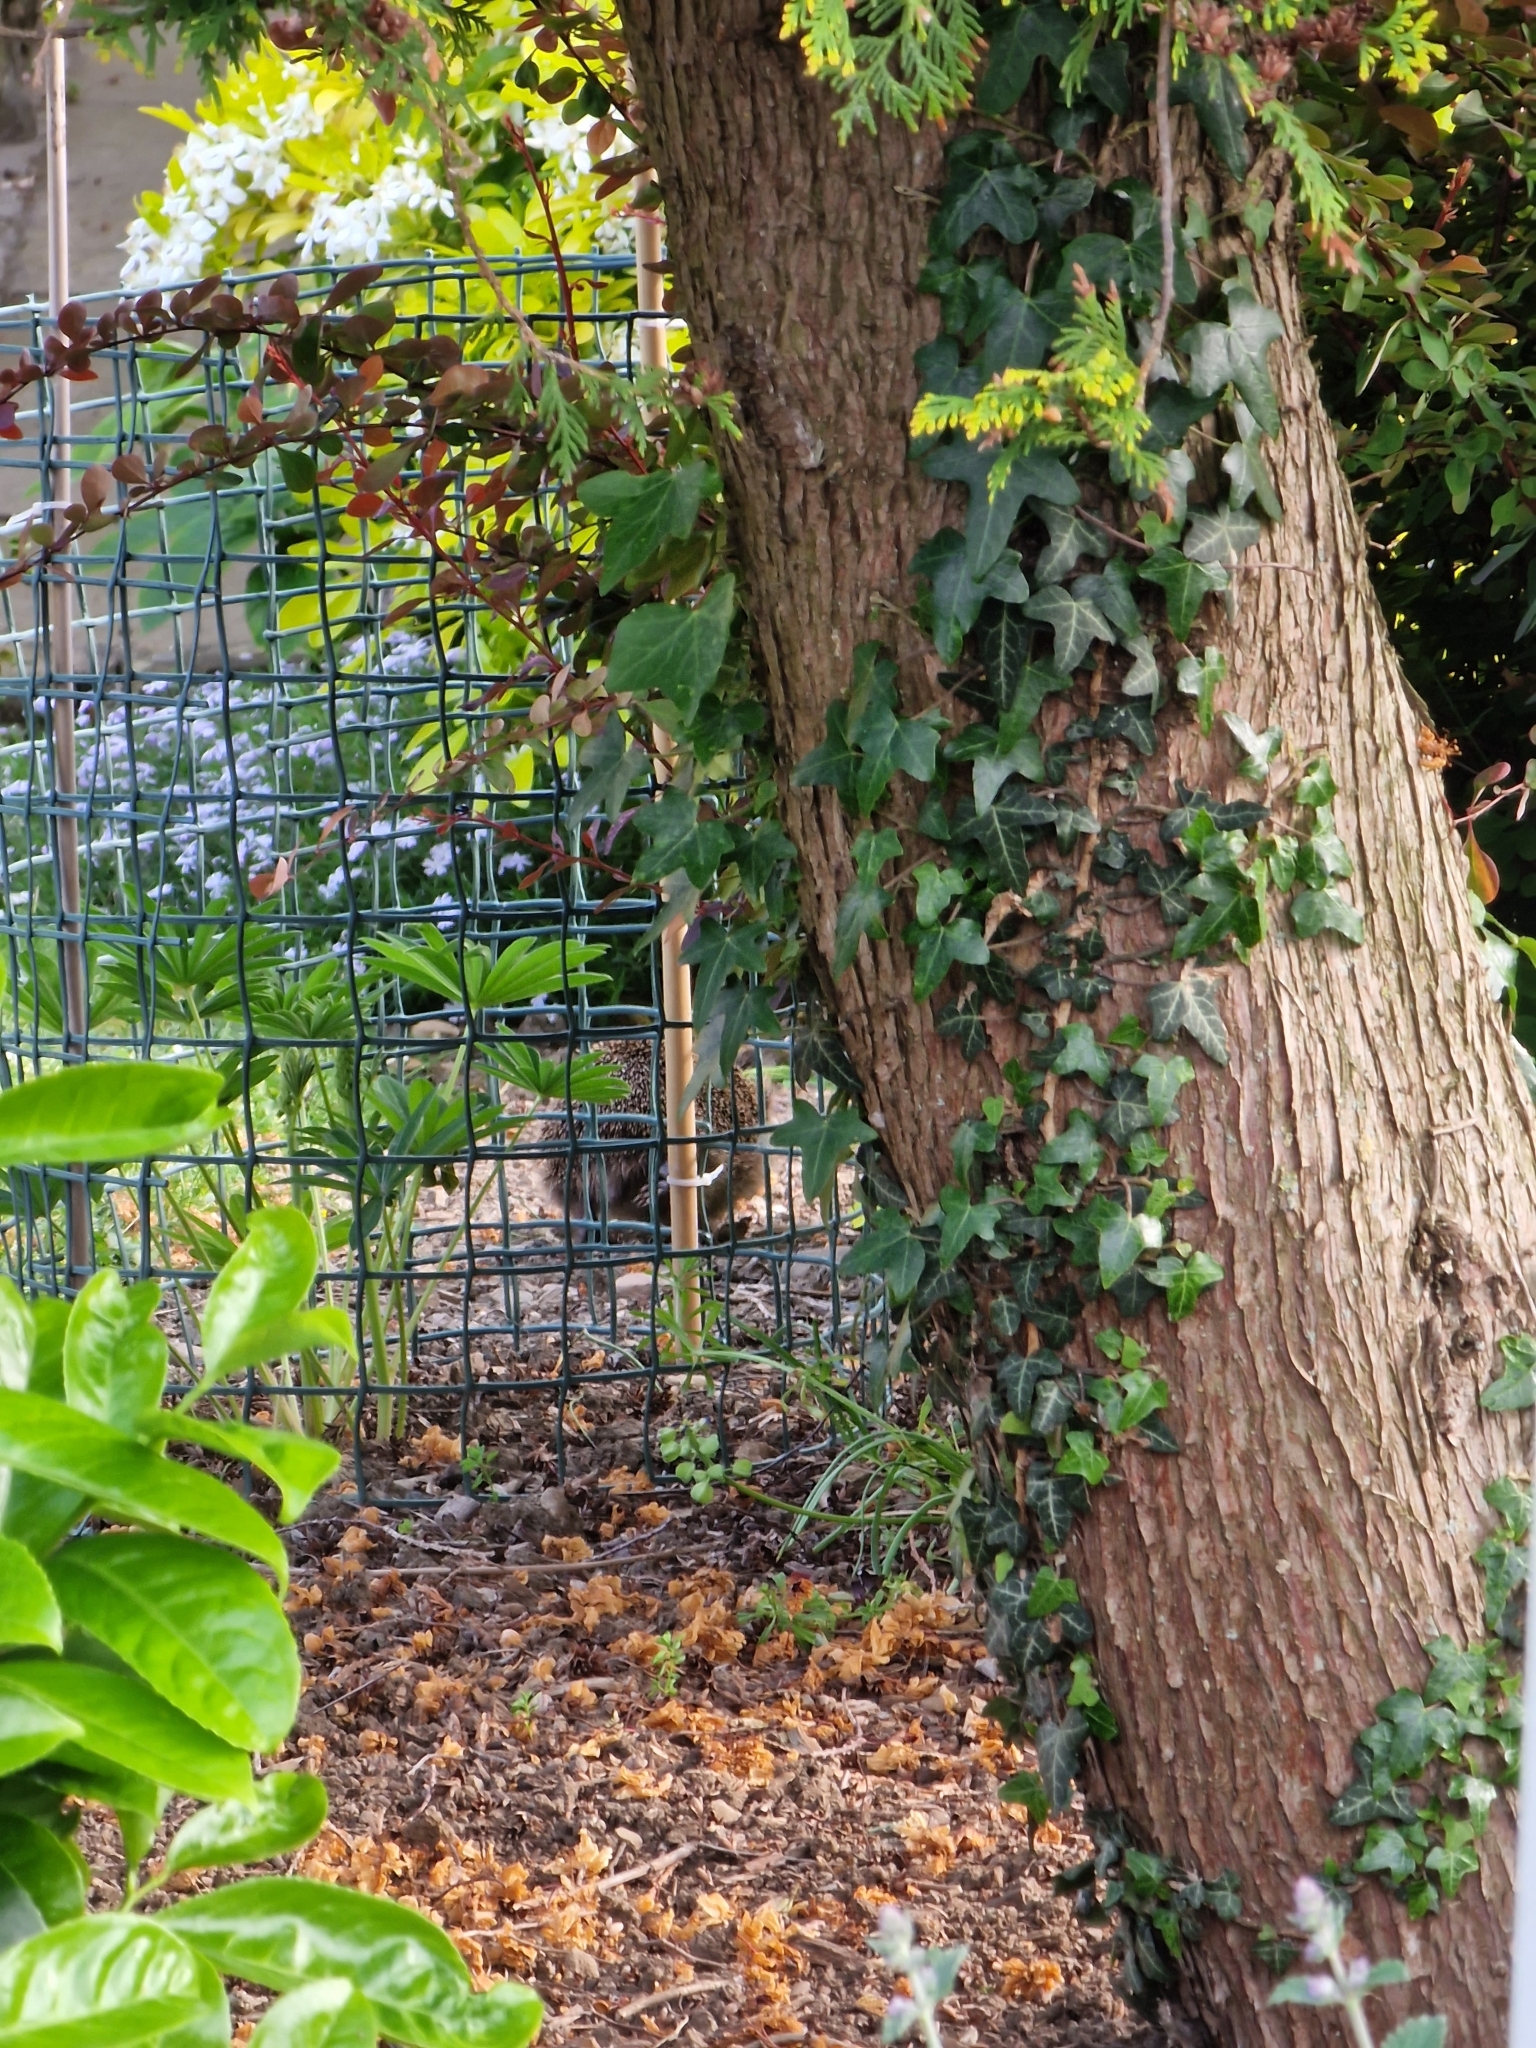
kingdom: Animalia
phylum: Chordata
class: Mammalia
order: Erinaceomorpha
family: Erinaceidae
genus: Erinaceus
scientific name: Erinaceus europaeus
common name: West european hedgehog
